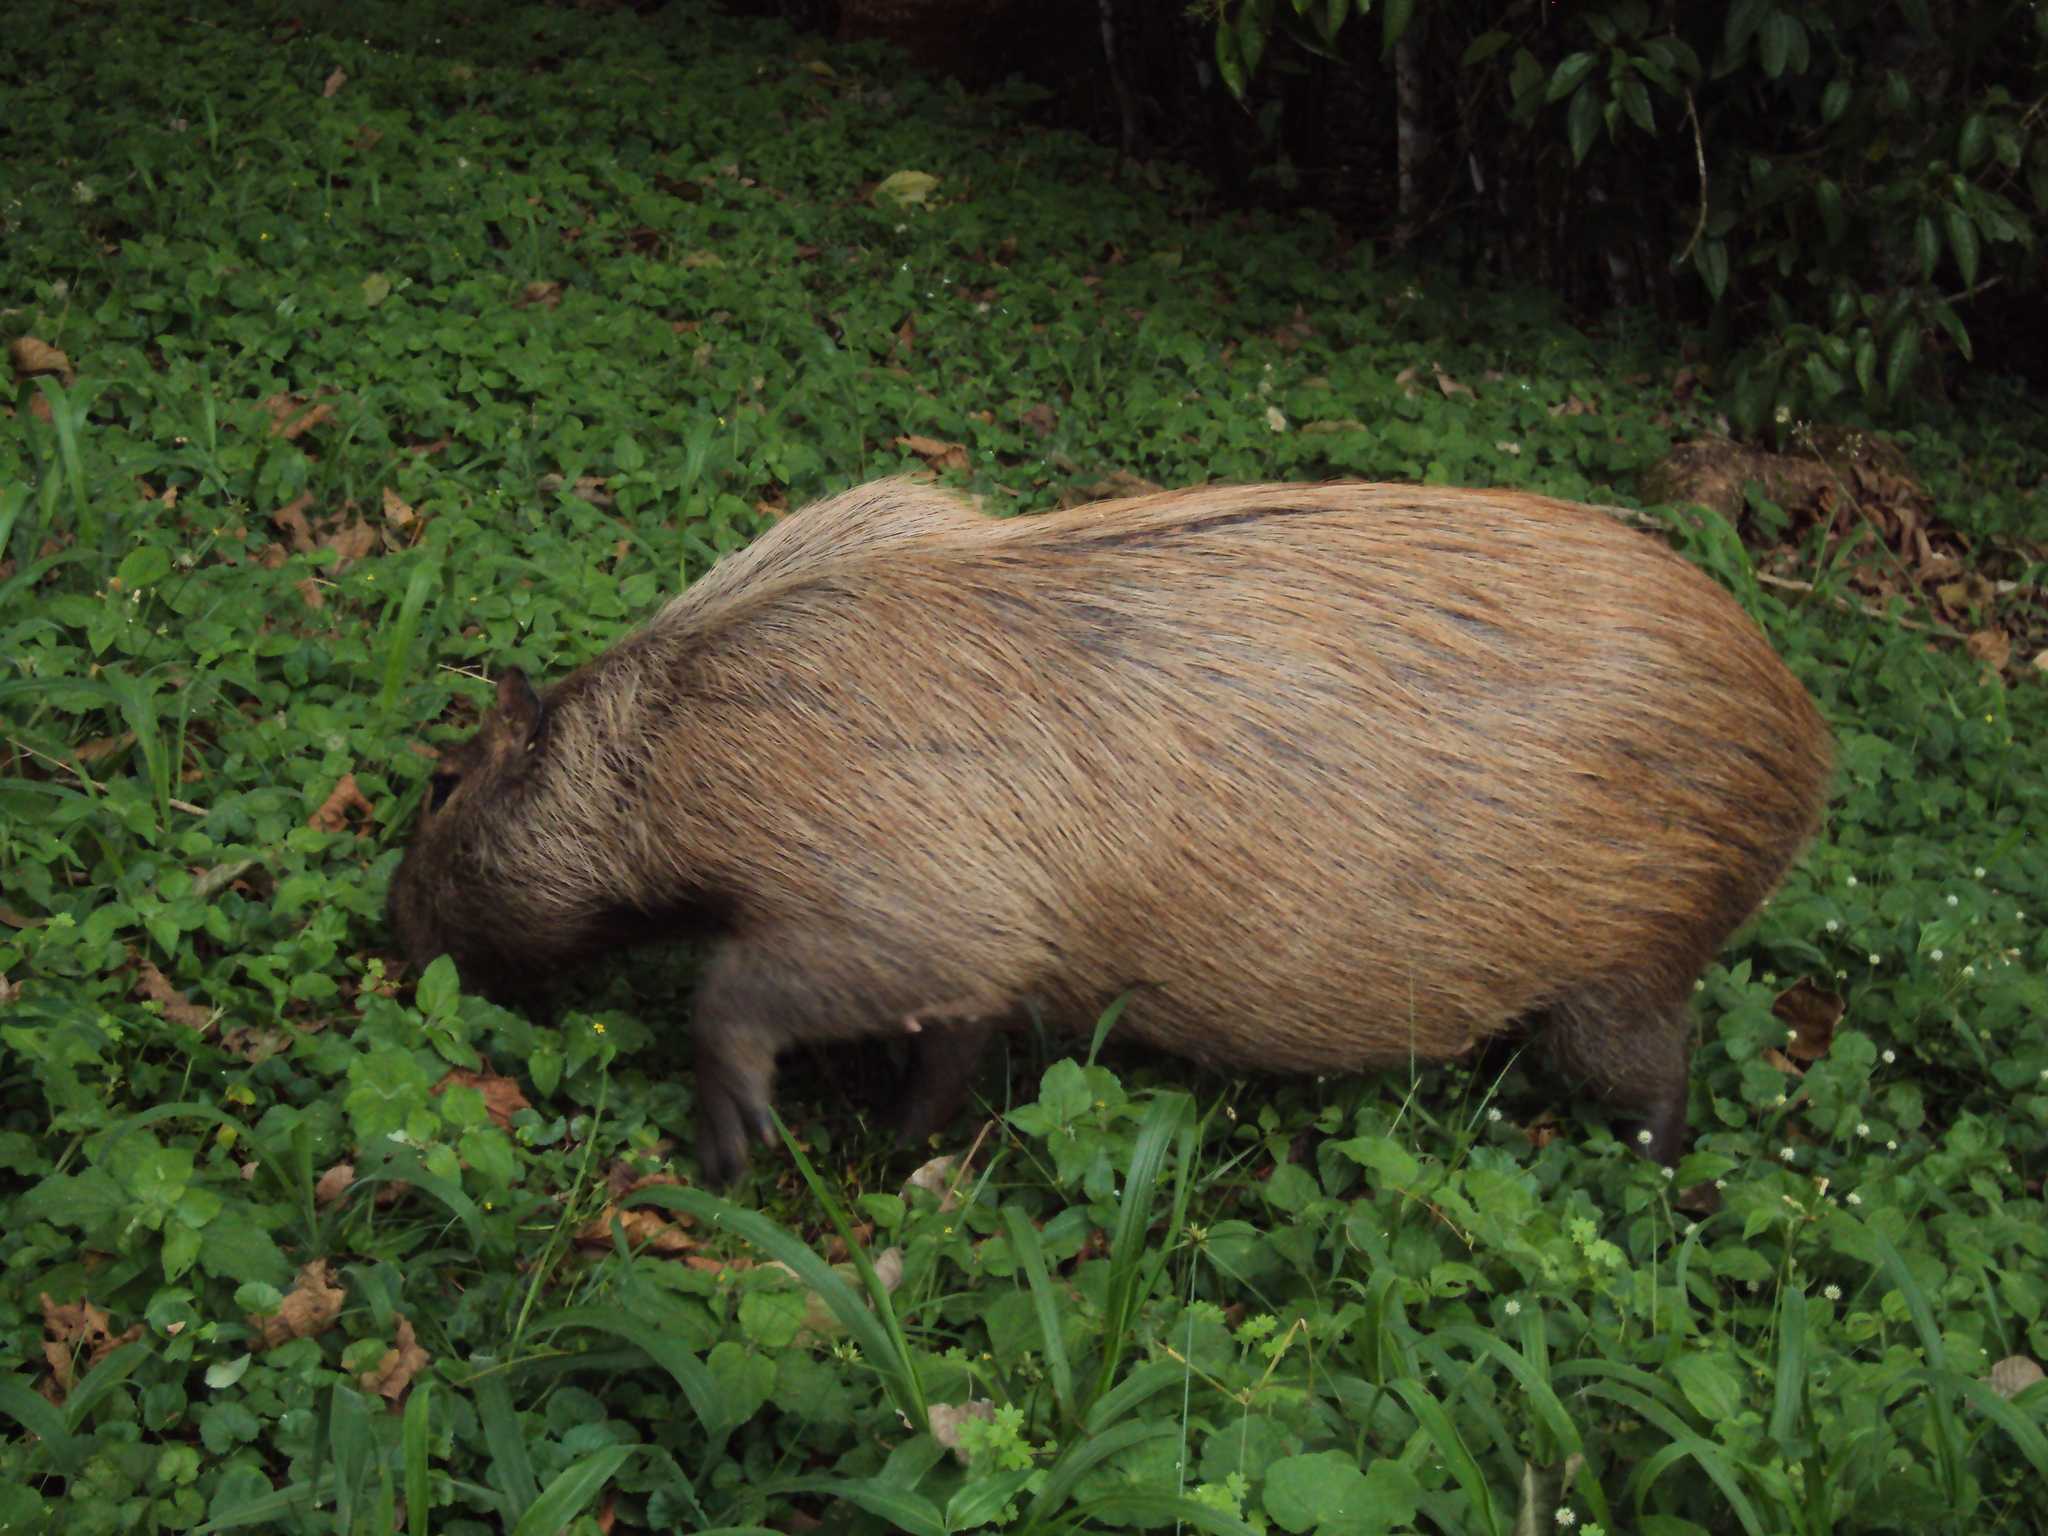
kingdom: Animalia
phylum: Chordata
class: Mammalia
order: Rodentia
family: Caviidae
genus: Hydrochoerus
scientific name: Hydrochoerus hydrochaeris
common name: Capybara
